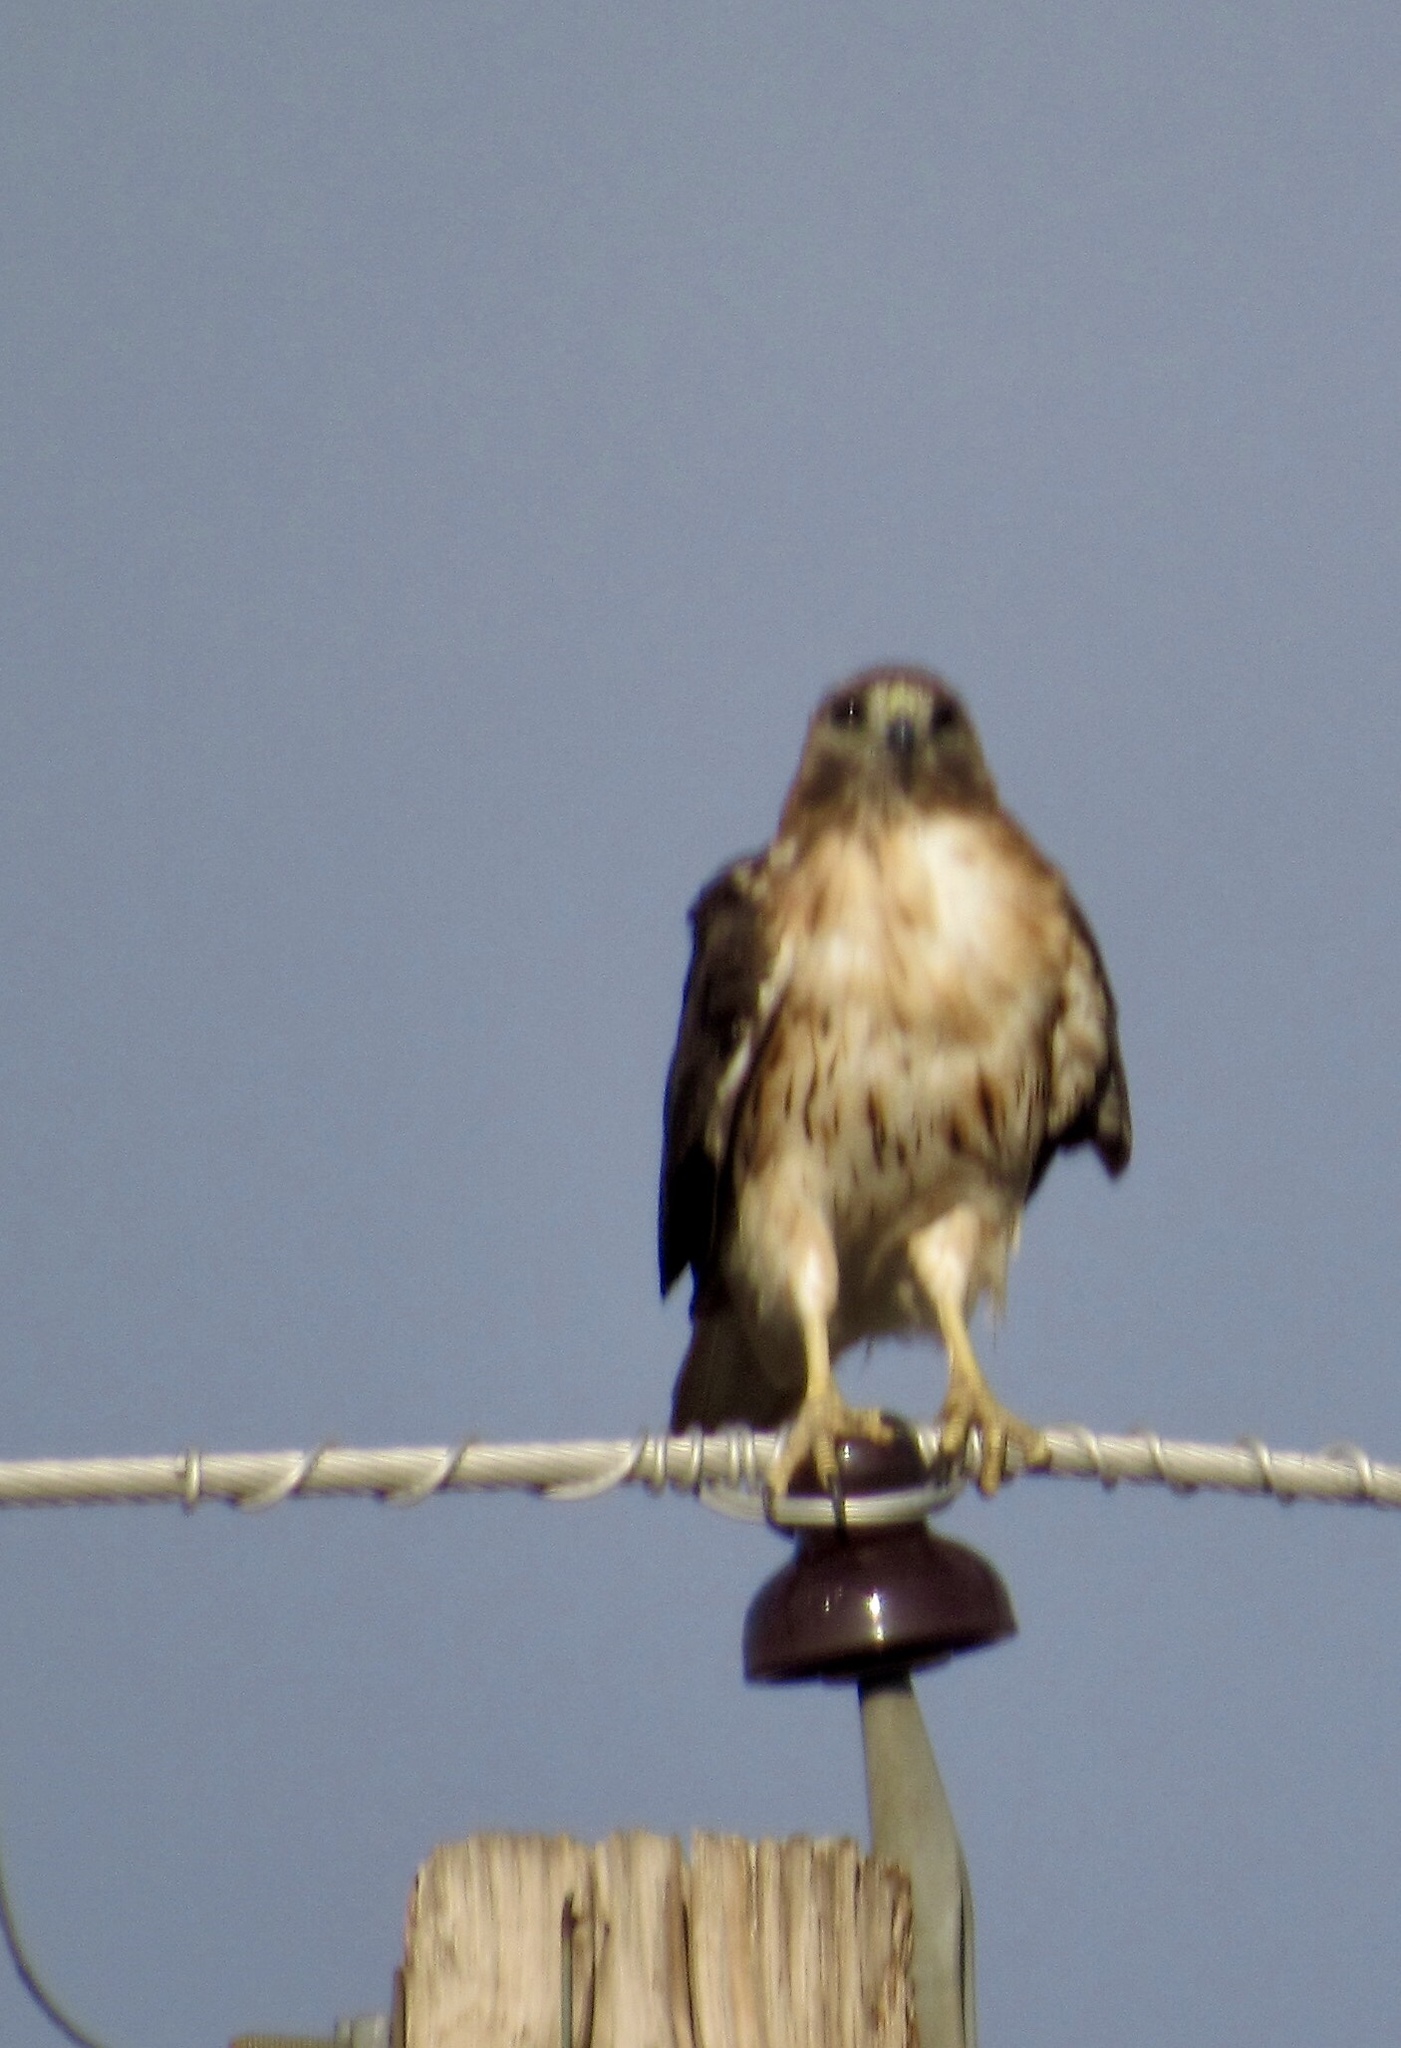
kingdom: Animalia
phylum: Chordata
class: Aves
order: Accipitriformes
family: Accipitridae
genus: Buteo
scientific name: Buteo jamaicensis
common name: Red-tailed hawk
